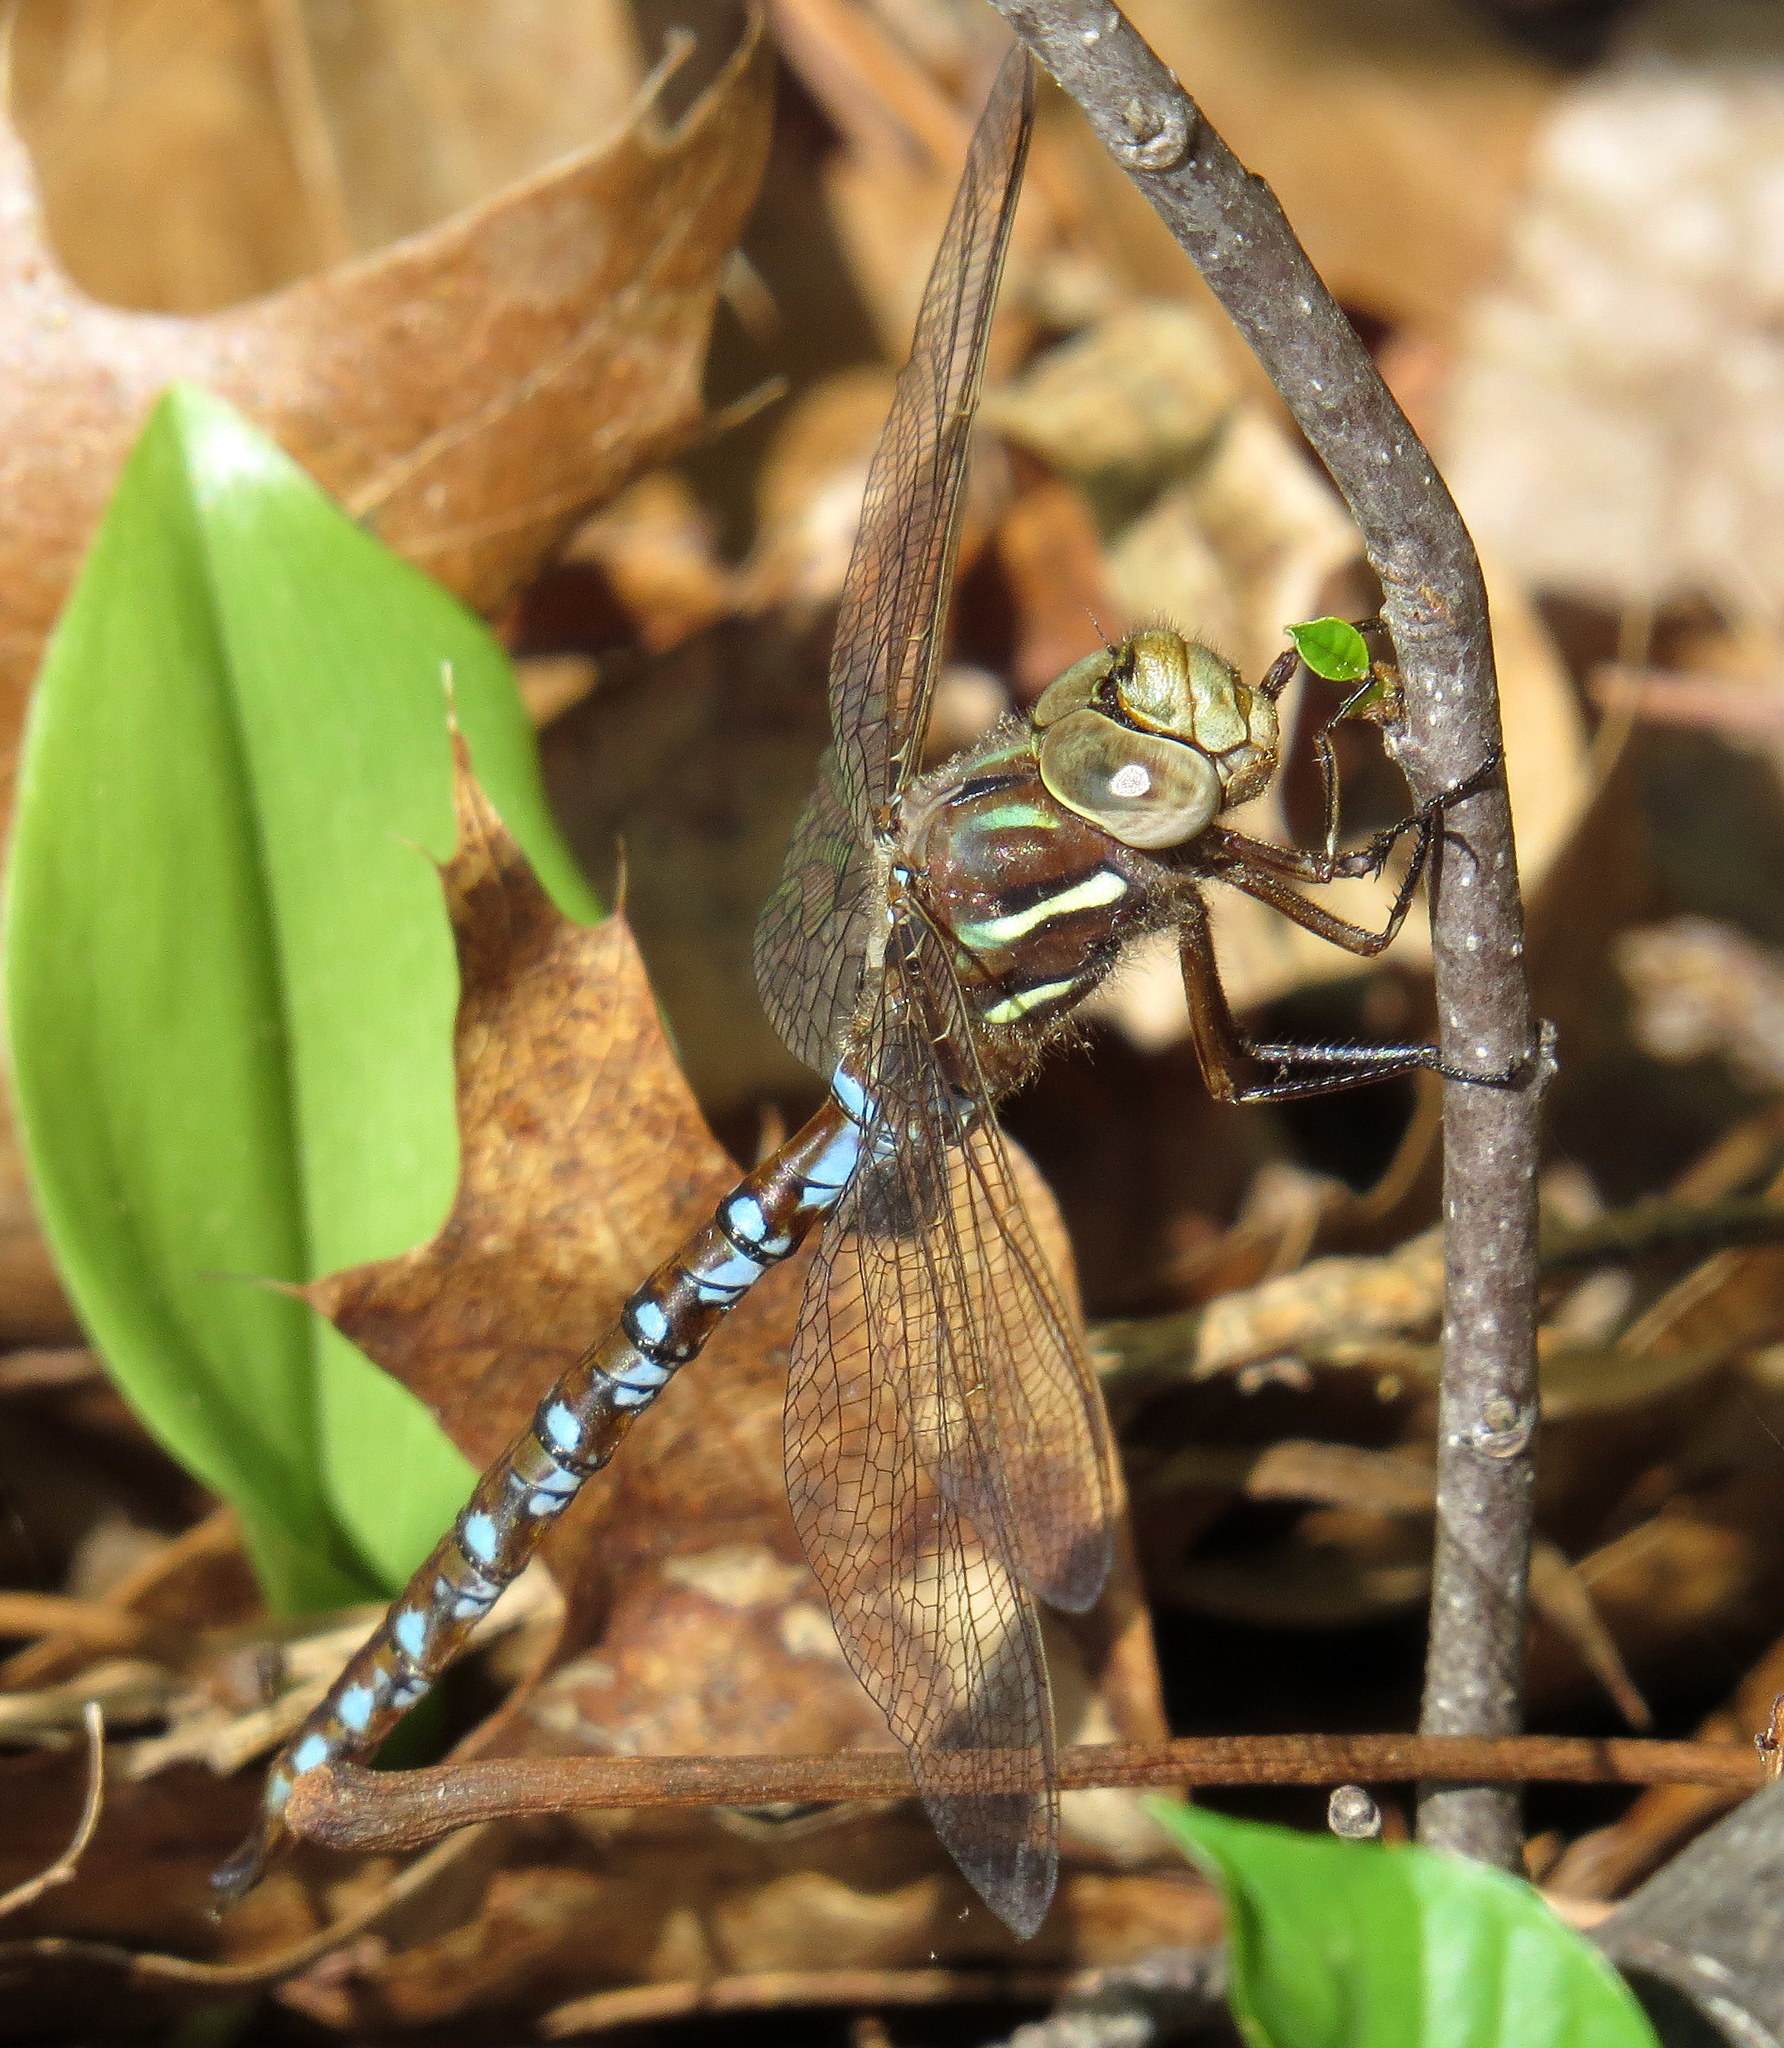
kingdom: Animalia
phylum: Arthropoda
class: Insecta
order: Odonata
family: Aeshnidae
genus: Basiaeschna
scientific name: Basiaeschna janata
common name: Springtime darner
